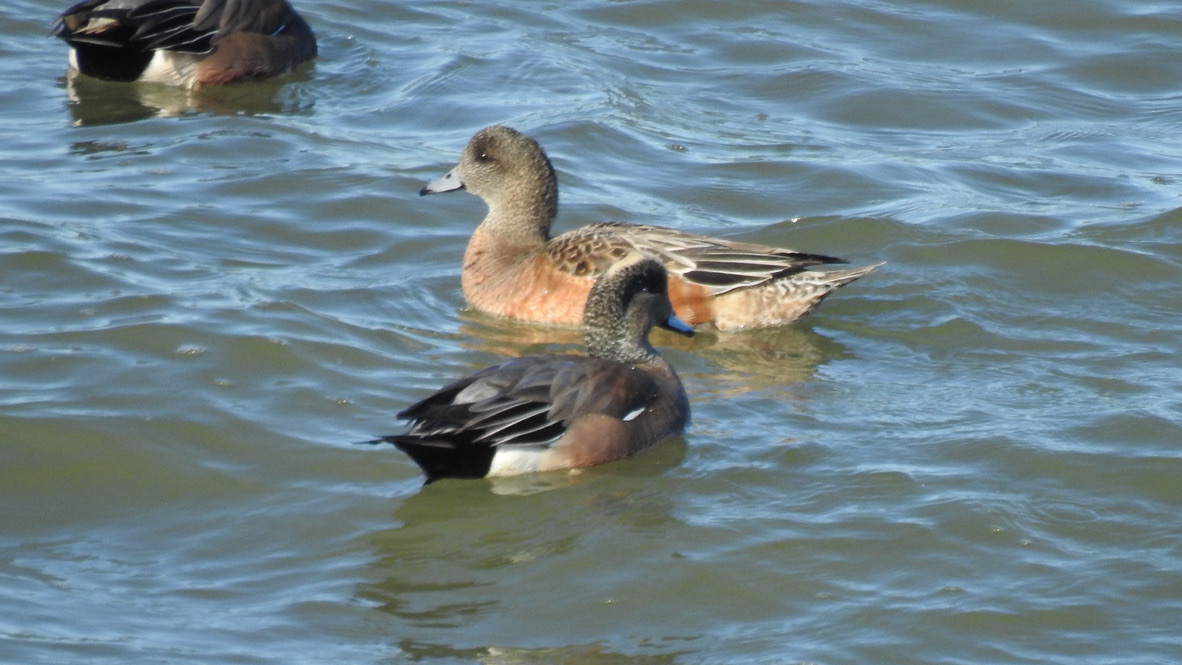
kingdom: Animalia
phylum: Chordata
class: Aves
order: Anseriformes
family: Anatidae
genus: Mareca
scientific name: Mareca americana
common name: American wigeon
